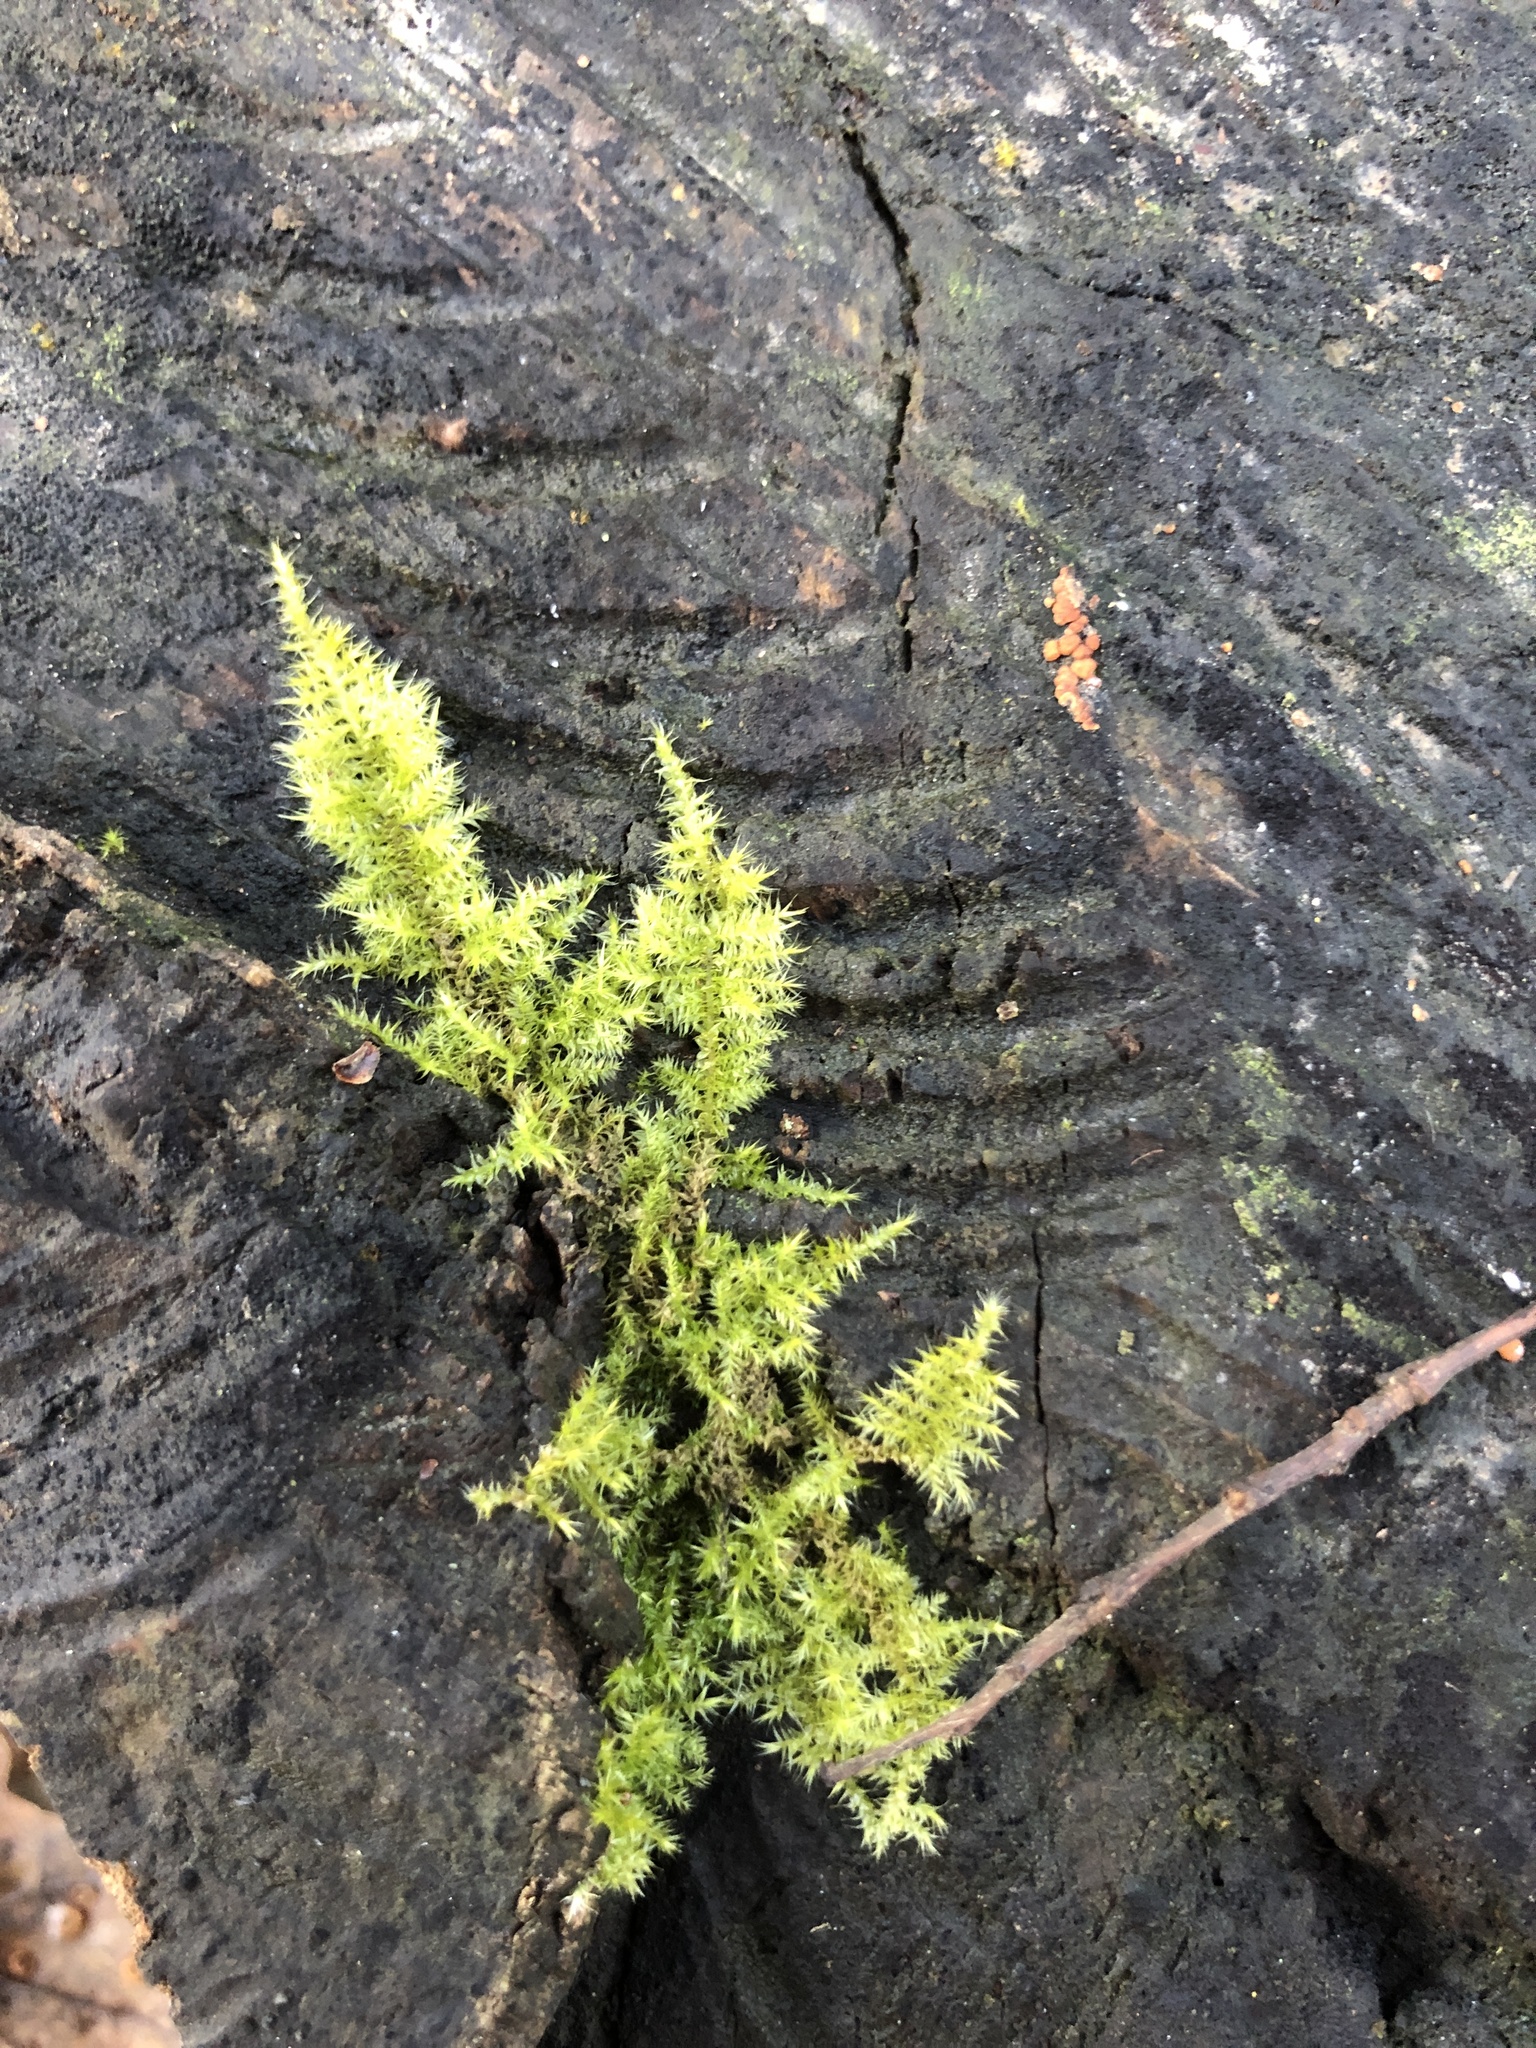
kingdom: Plantae
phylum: Bryophyta
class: Bryopsida
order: Hypnales
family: Brachytheciaceae
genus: Kindbergia
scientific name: Kindbergia praelonga
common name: Slender beaked moss
